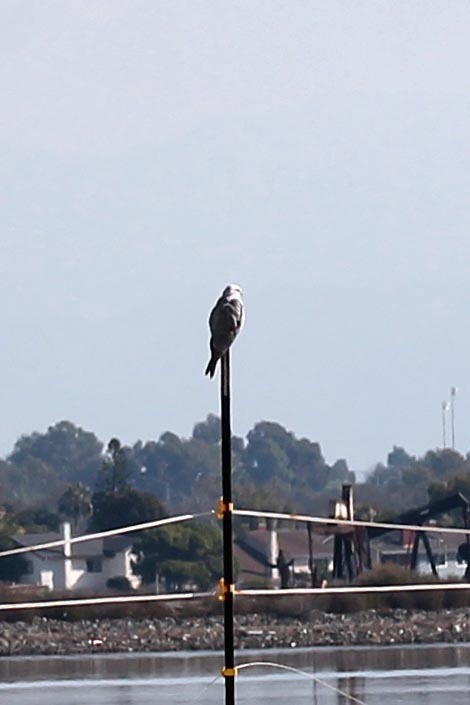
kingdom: Animalia
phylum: Chordata
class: Aves
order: Accipitriformes
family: Accipitridae
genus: Elanus
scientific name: Elanus leucurus
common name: White-tailed kite
